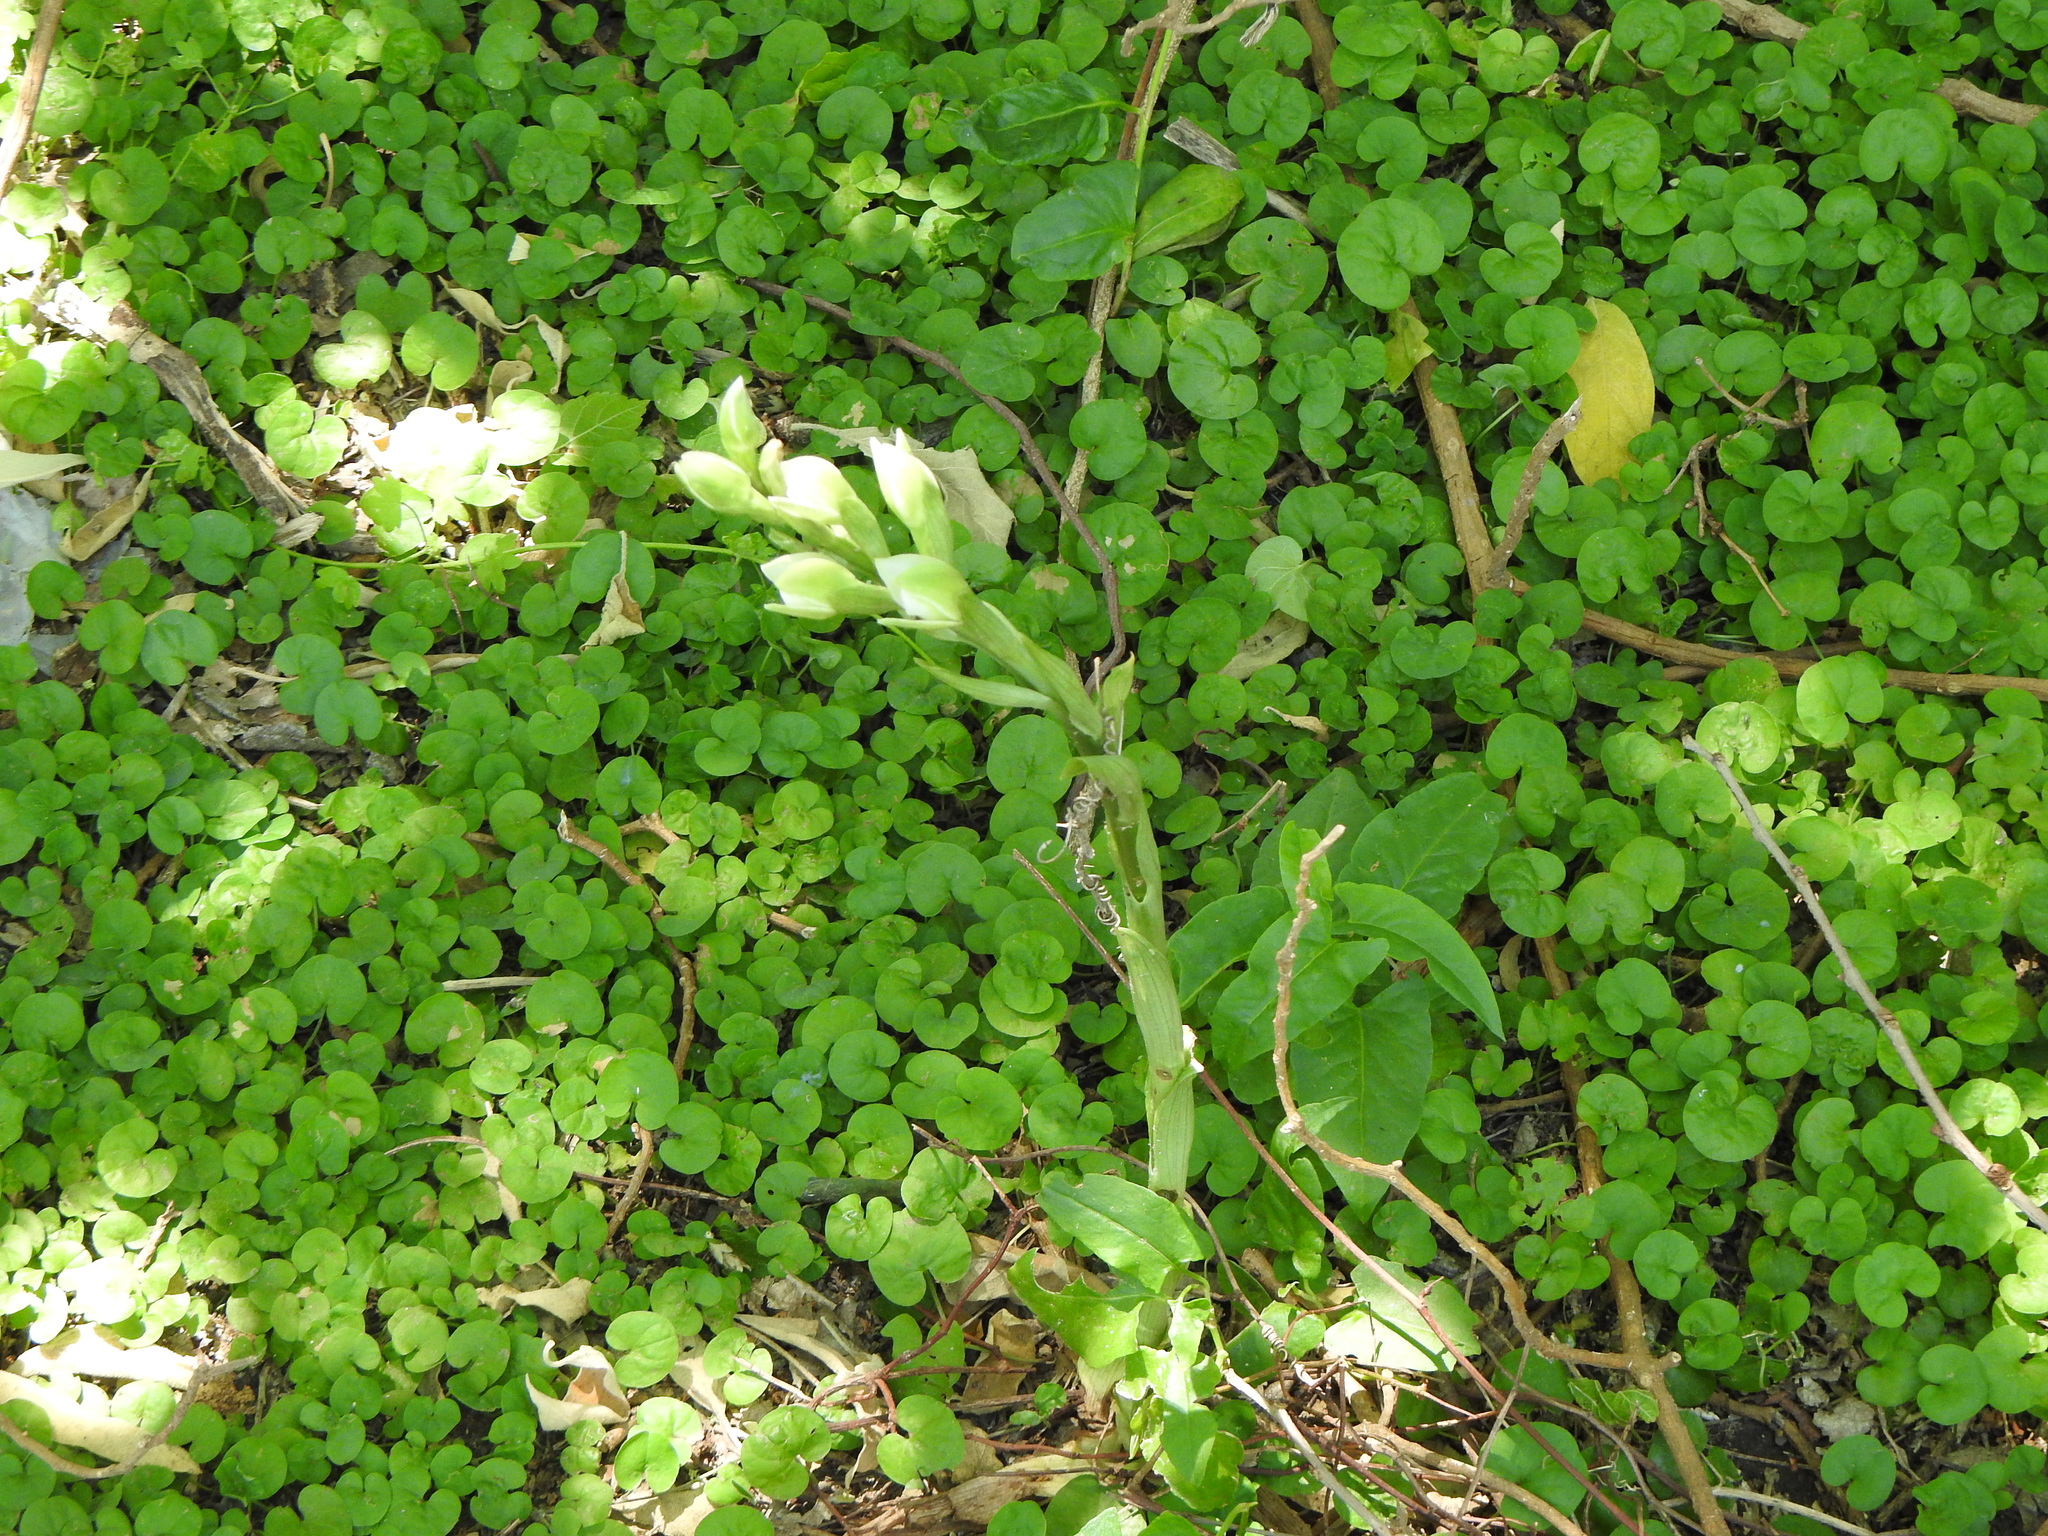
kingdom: Plantae
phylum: Tracheophyta
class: Liliopsida
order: Asparagales
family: Orchidaceae
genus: Chloraea
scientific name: Chloraea membranacea
